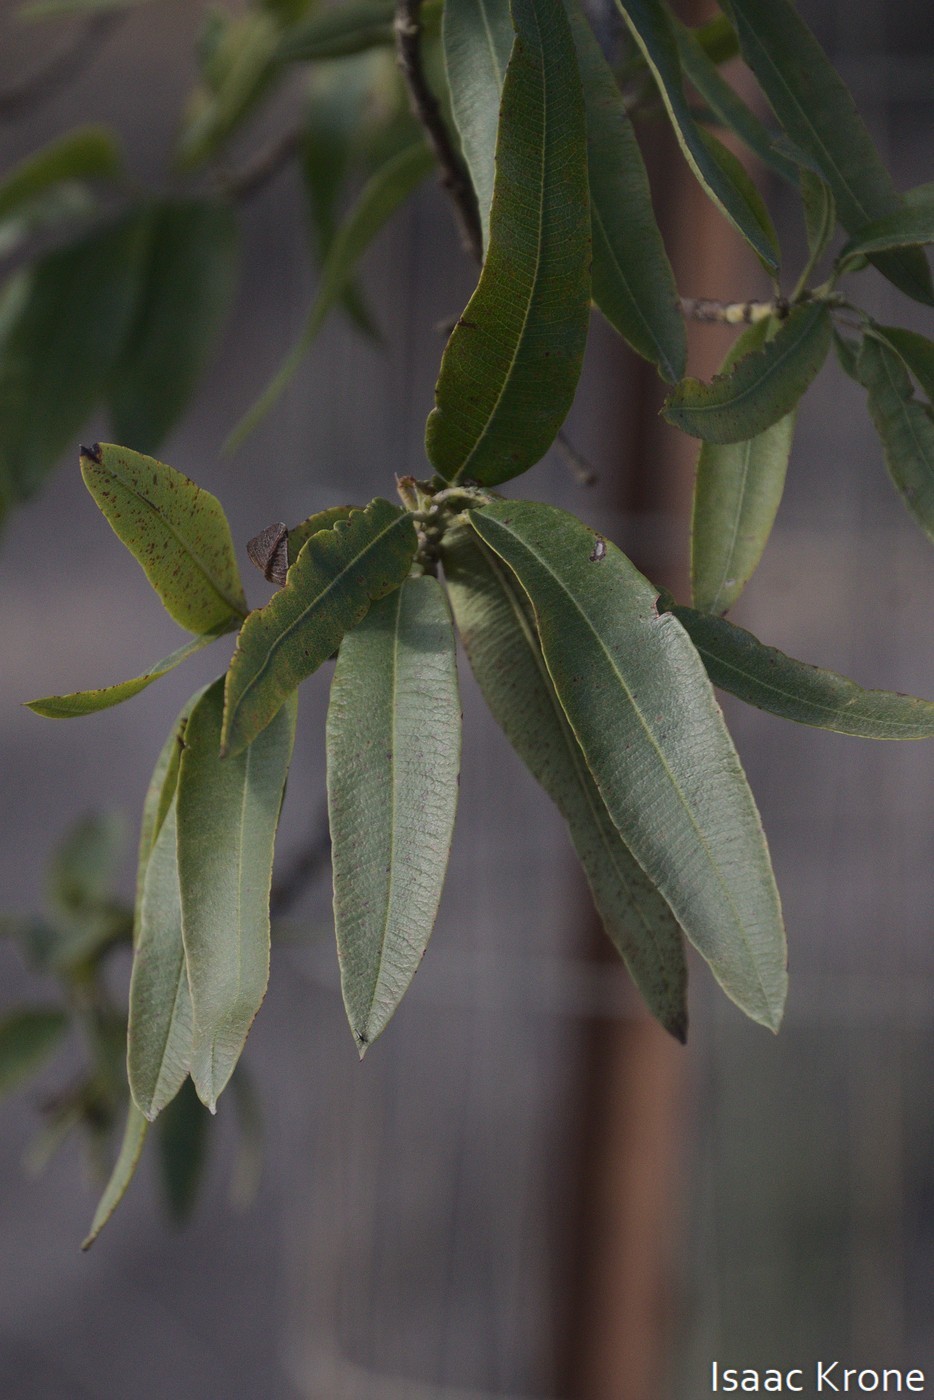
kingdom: Plantae
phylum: Tracheophyta
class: Magnoliopsida
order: Rosales
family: Rosaceae
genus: Lyonothamnus
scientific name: Lyonothamnus floribundus
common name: Catalina ironwood
